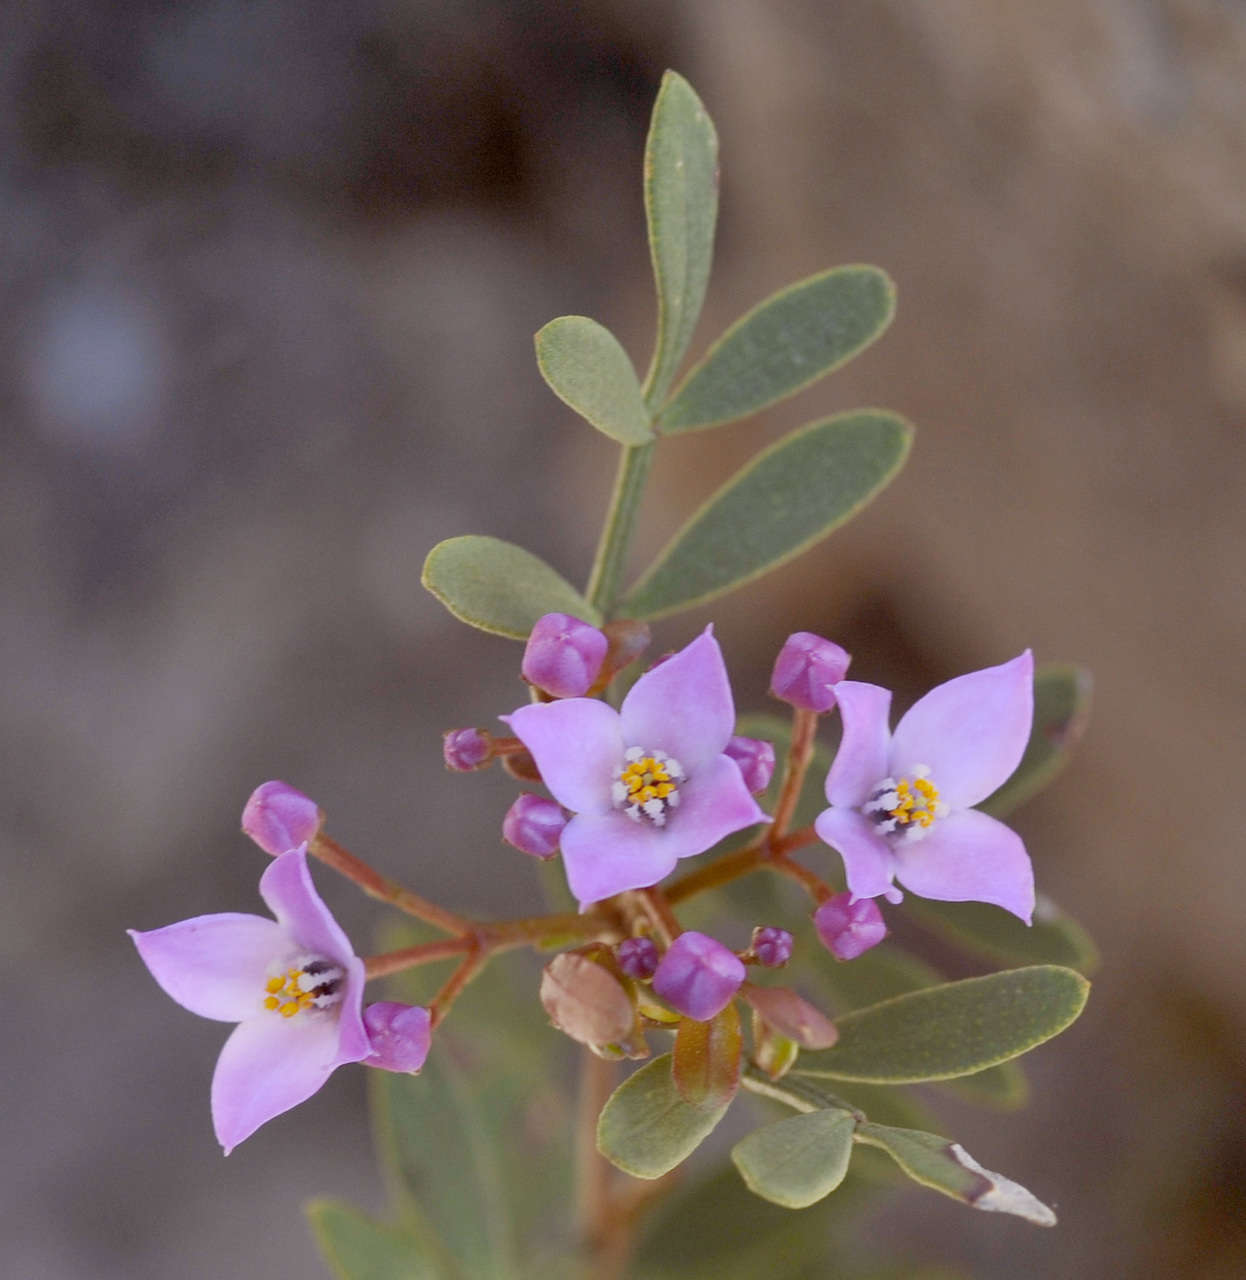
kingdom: Plantae
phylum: Tracheophyta
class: Magnoliopsida
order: Sapindales
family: Rutaceae
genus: Boronia
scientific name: Boronia latipinna
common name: Grampians boronia
